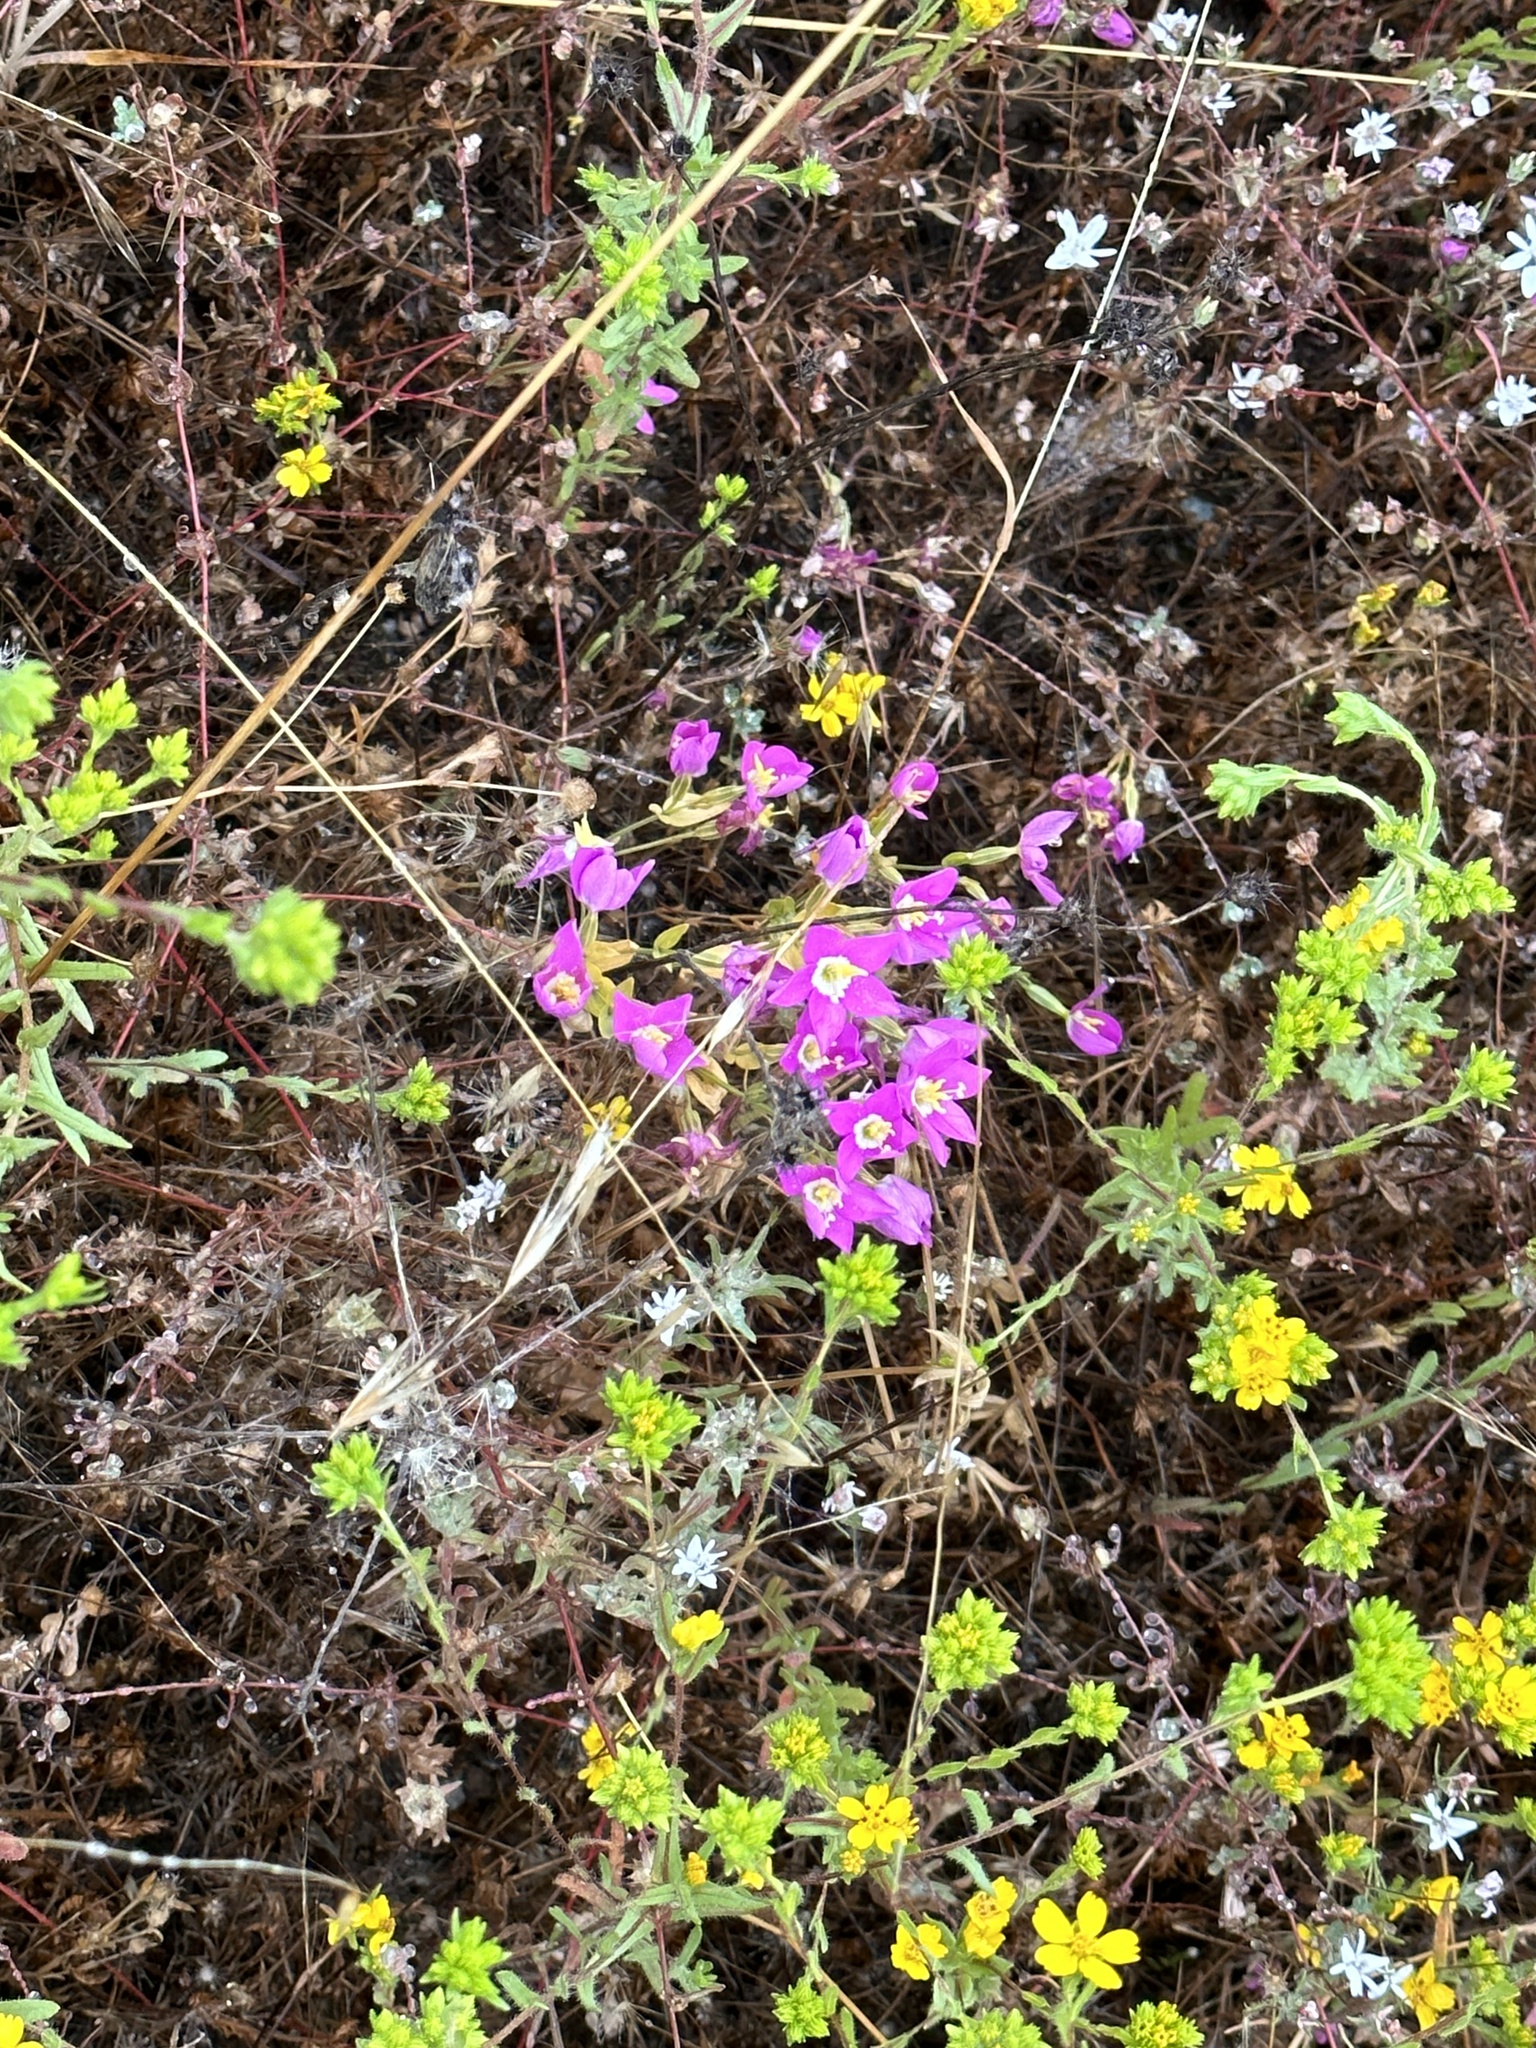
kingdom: Plantae
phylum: Tracheophyta
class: Magnoliopsida
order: Gentianales
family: Gentianaceae
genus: Zeltnera
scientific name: Zeltnera venusta
